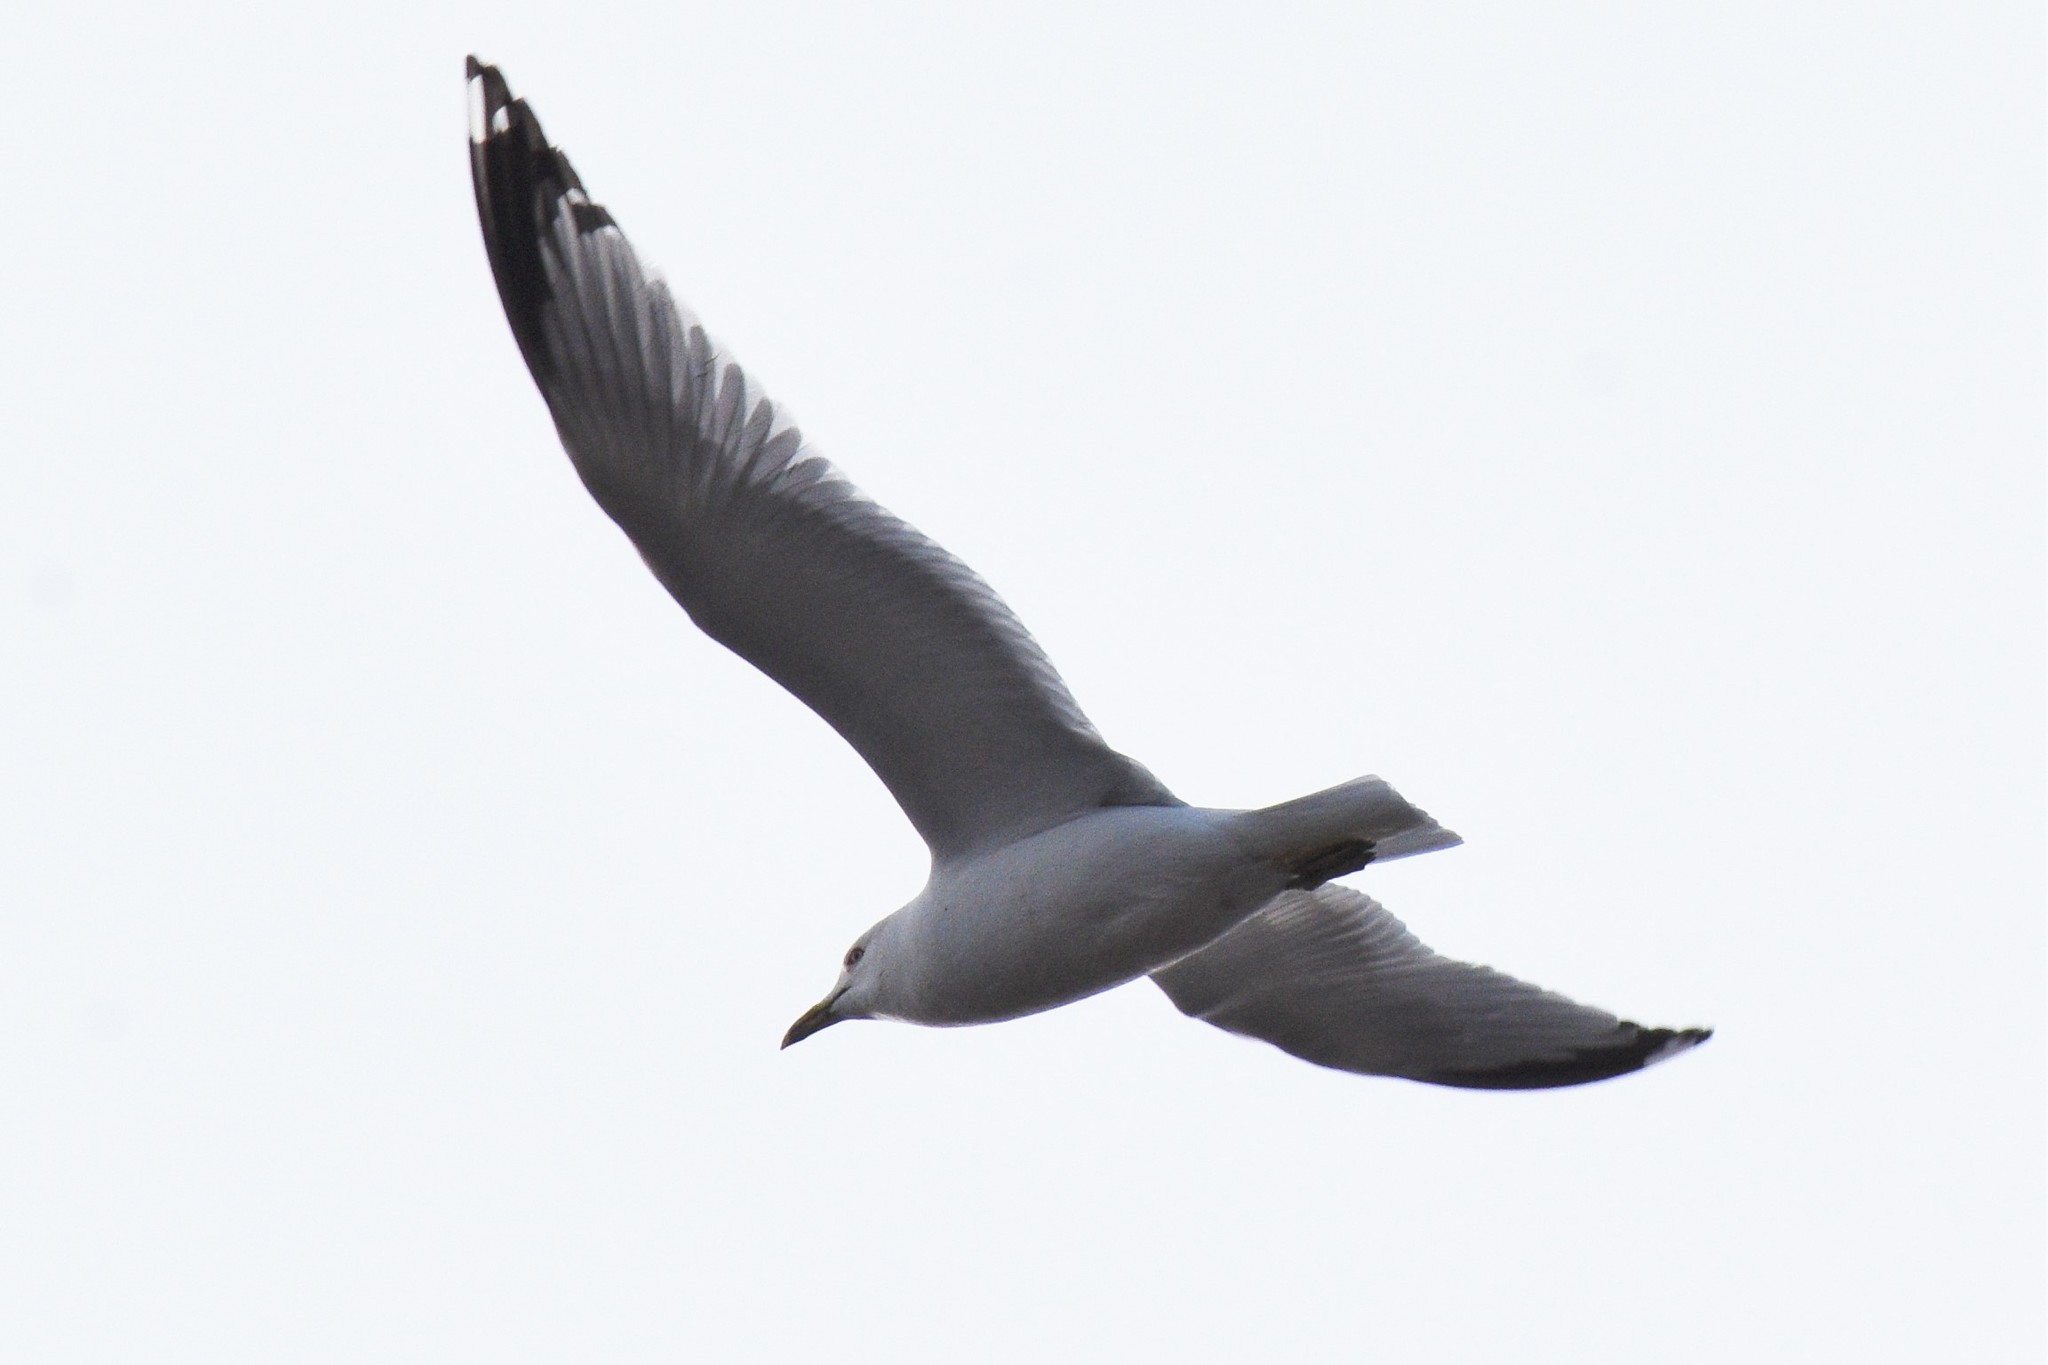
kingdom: Animalia
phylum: Chordata
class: Aves
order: Charadriiformes
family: Laridae
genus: Larus
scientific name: Larus delawarensis
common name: Ring-billed gull
